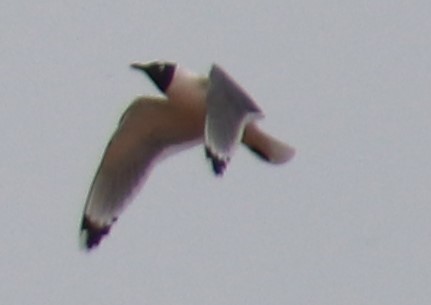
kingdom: Animalia
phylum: Chordata
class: Aves
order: Charadriiformes
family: Laridae
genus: Leucophaeus
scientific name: Leucophaeus pipixcan
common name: Franklin's gull
